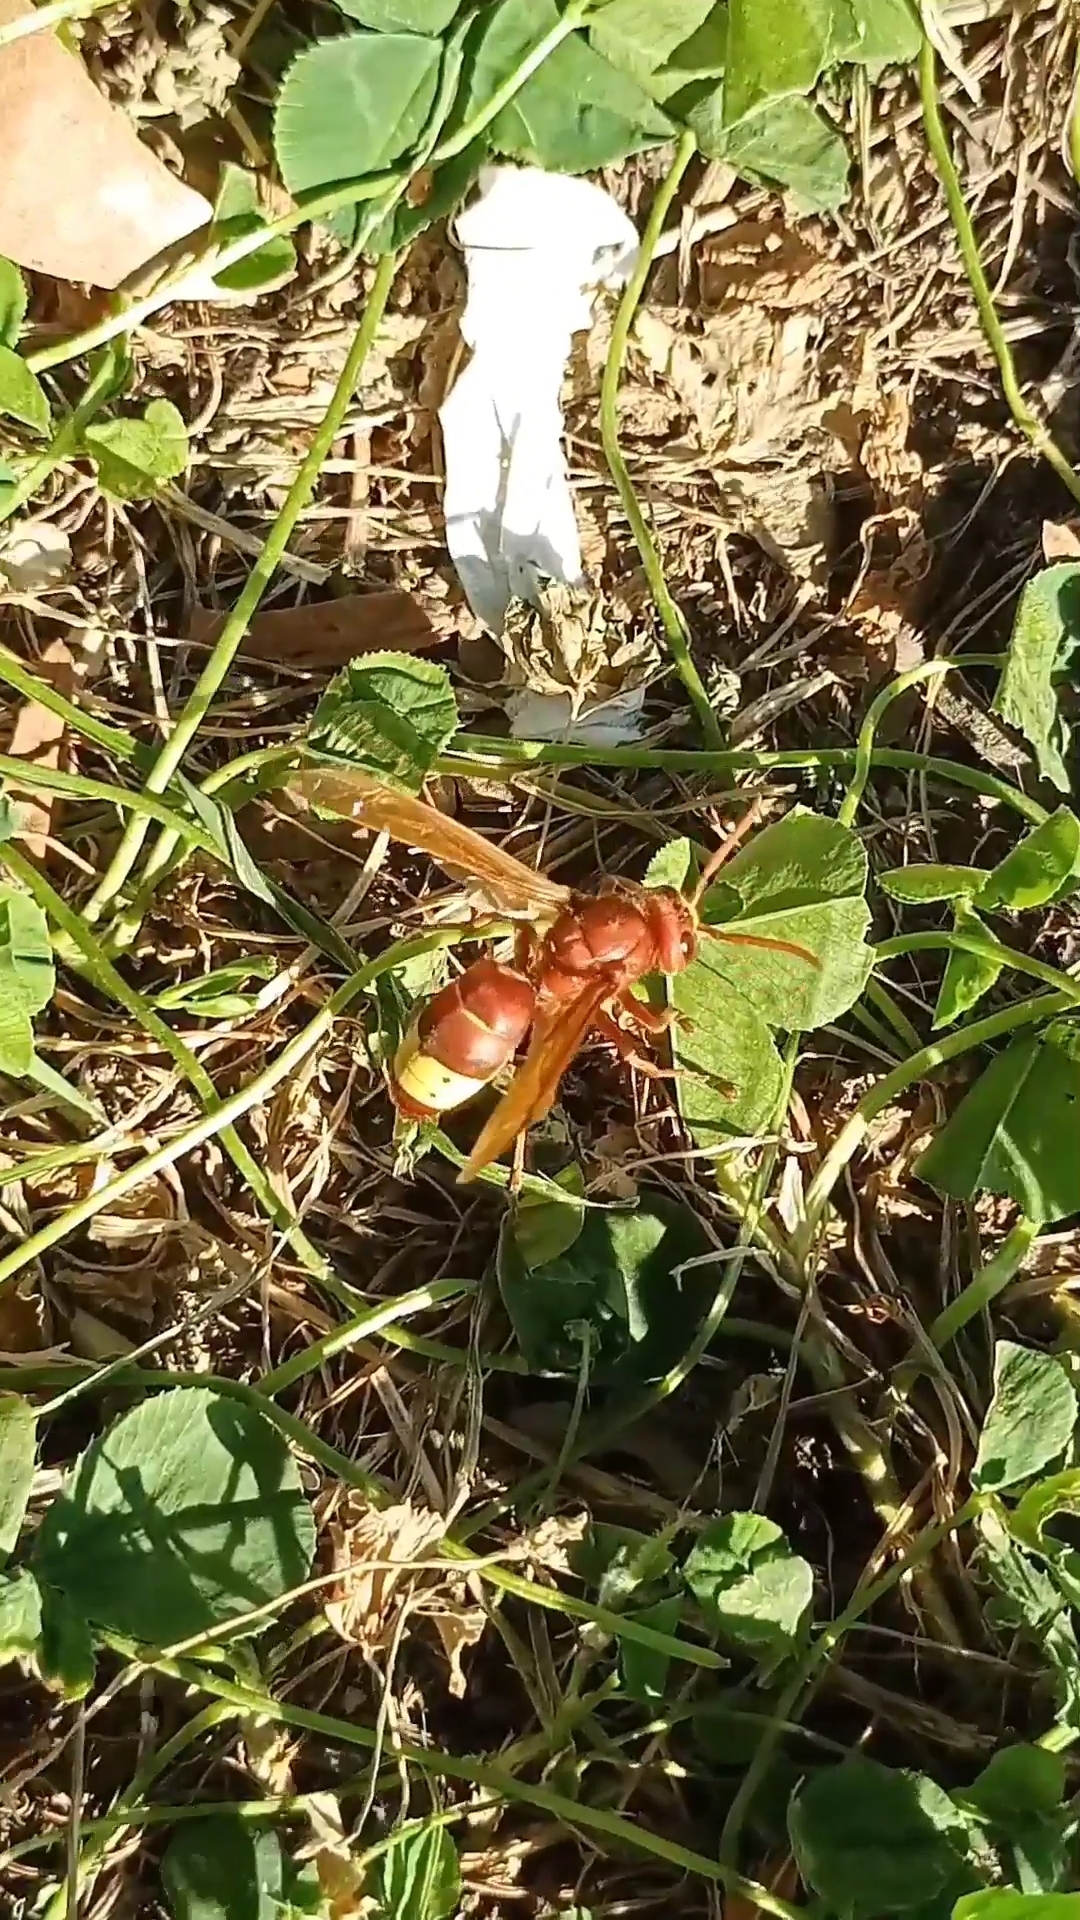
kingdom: Animalia
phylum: Arthropoda
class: Insecta
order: Hymenoptera
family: Vespidae
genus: Vespa
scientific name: Vespa orientalis
